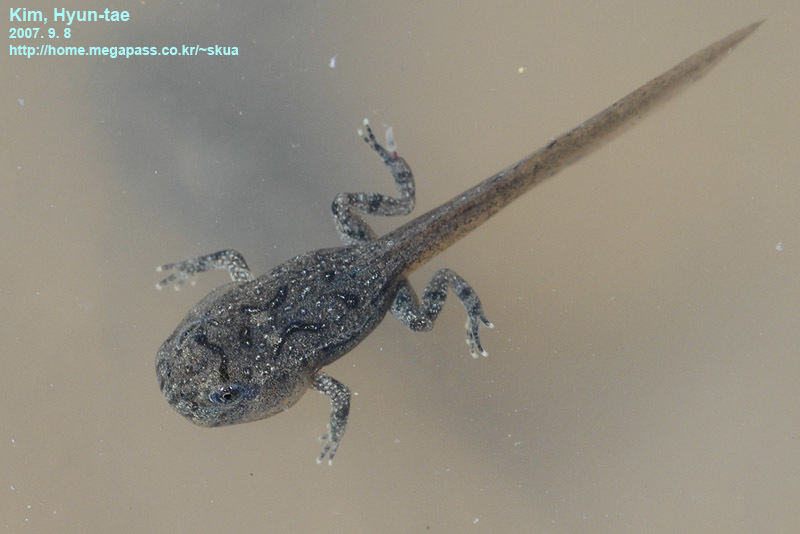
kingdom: Animalia
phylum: Chordata
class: Amphibia
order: Anura
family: Bombinatoridae
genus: Bombina
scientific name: Bombina orientalis
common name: Oriental firebelly toad
